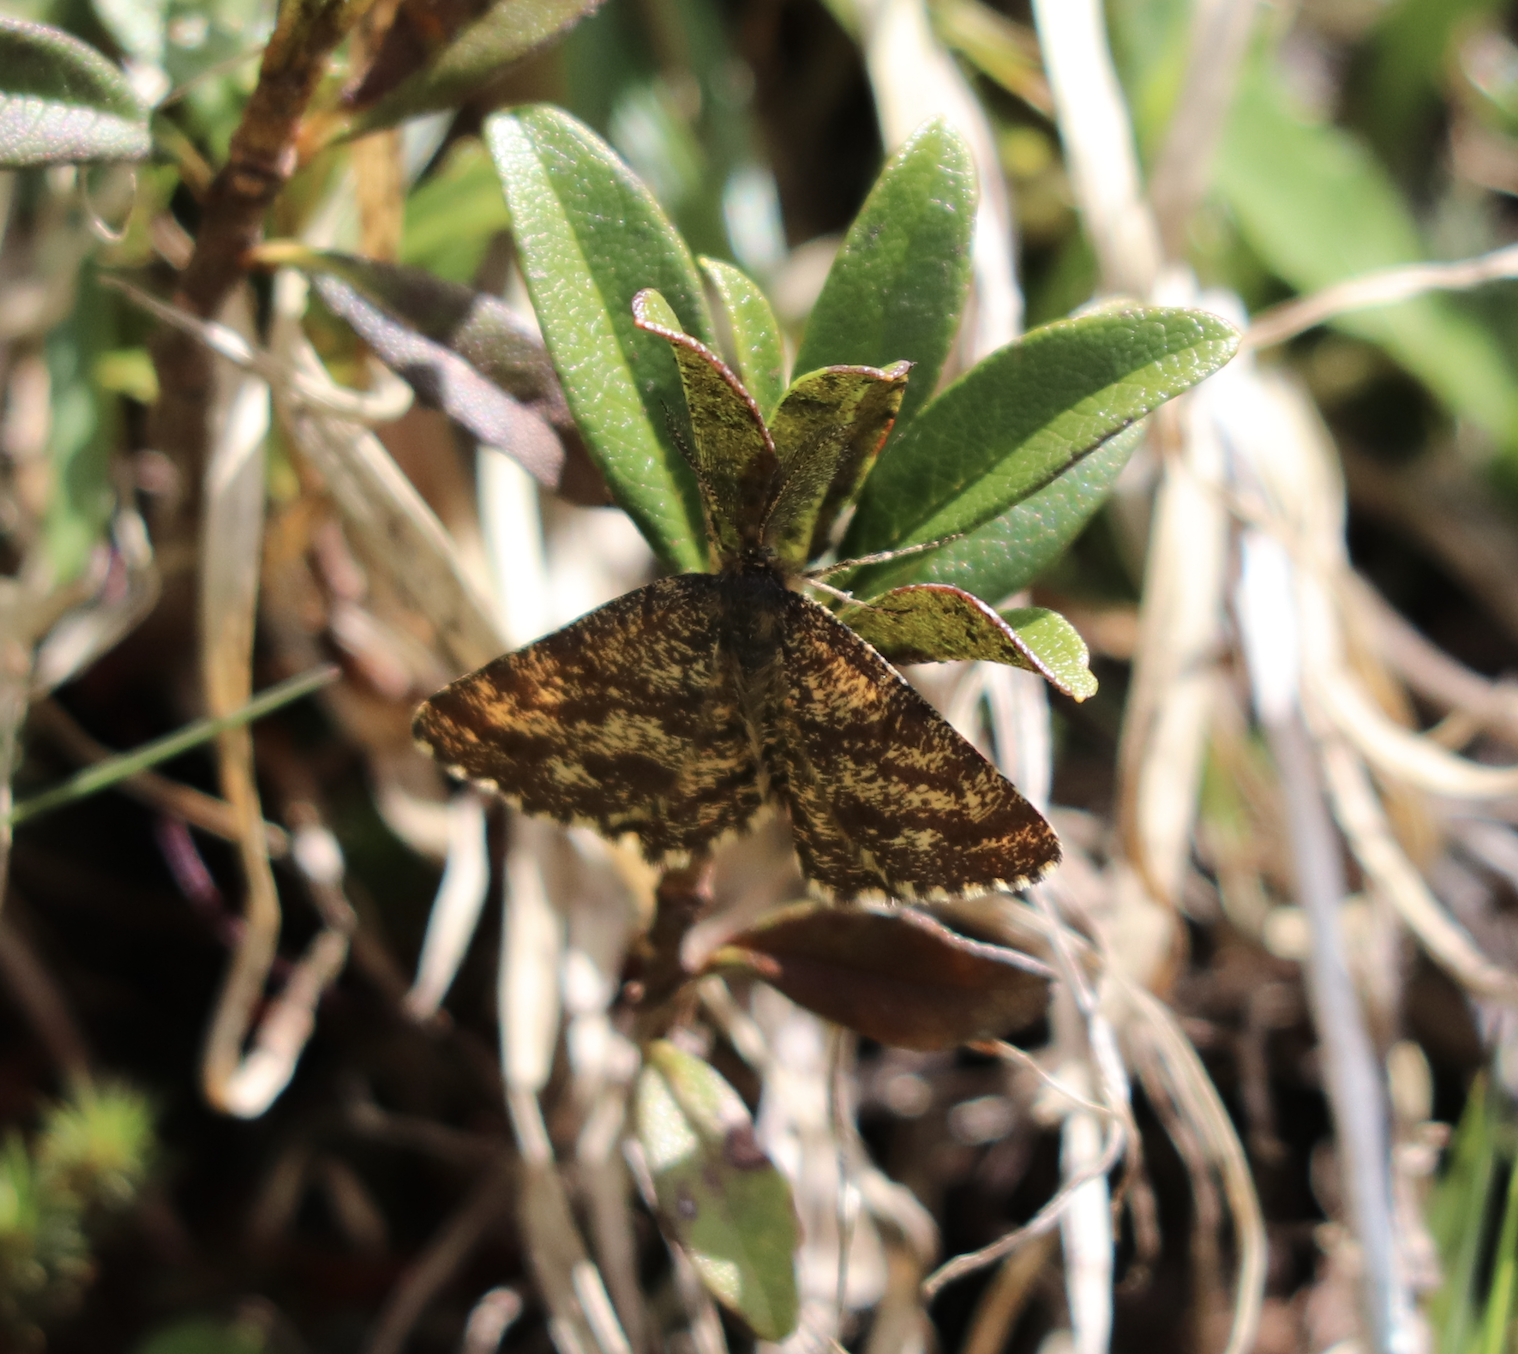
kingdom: Animalia
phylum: Arthropoda
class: Insecta
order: Lepidoptera
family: Geometridae
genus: Ematurga
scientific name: Ematurga atomaria
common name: Common heath
